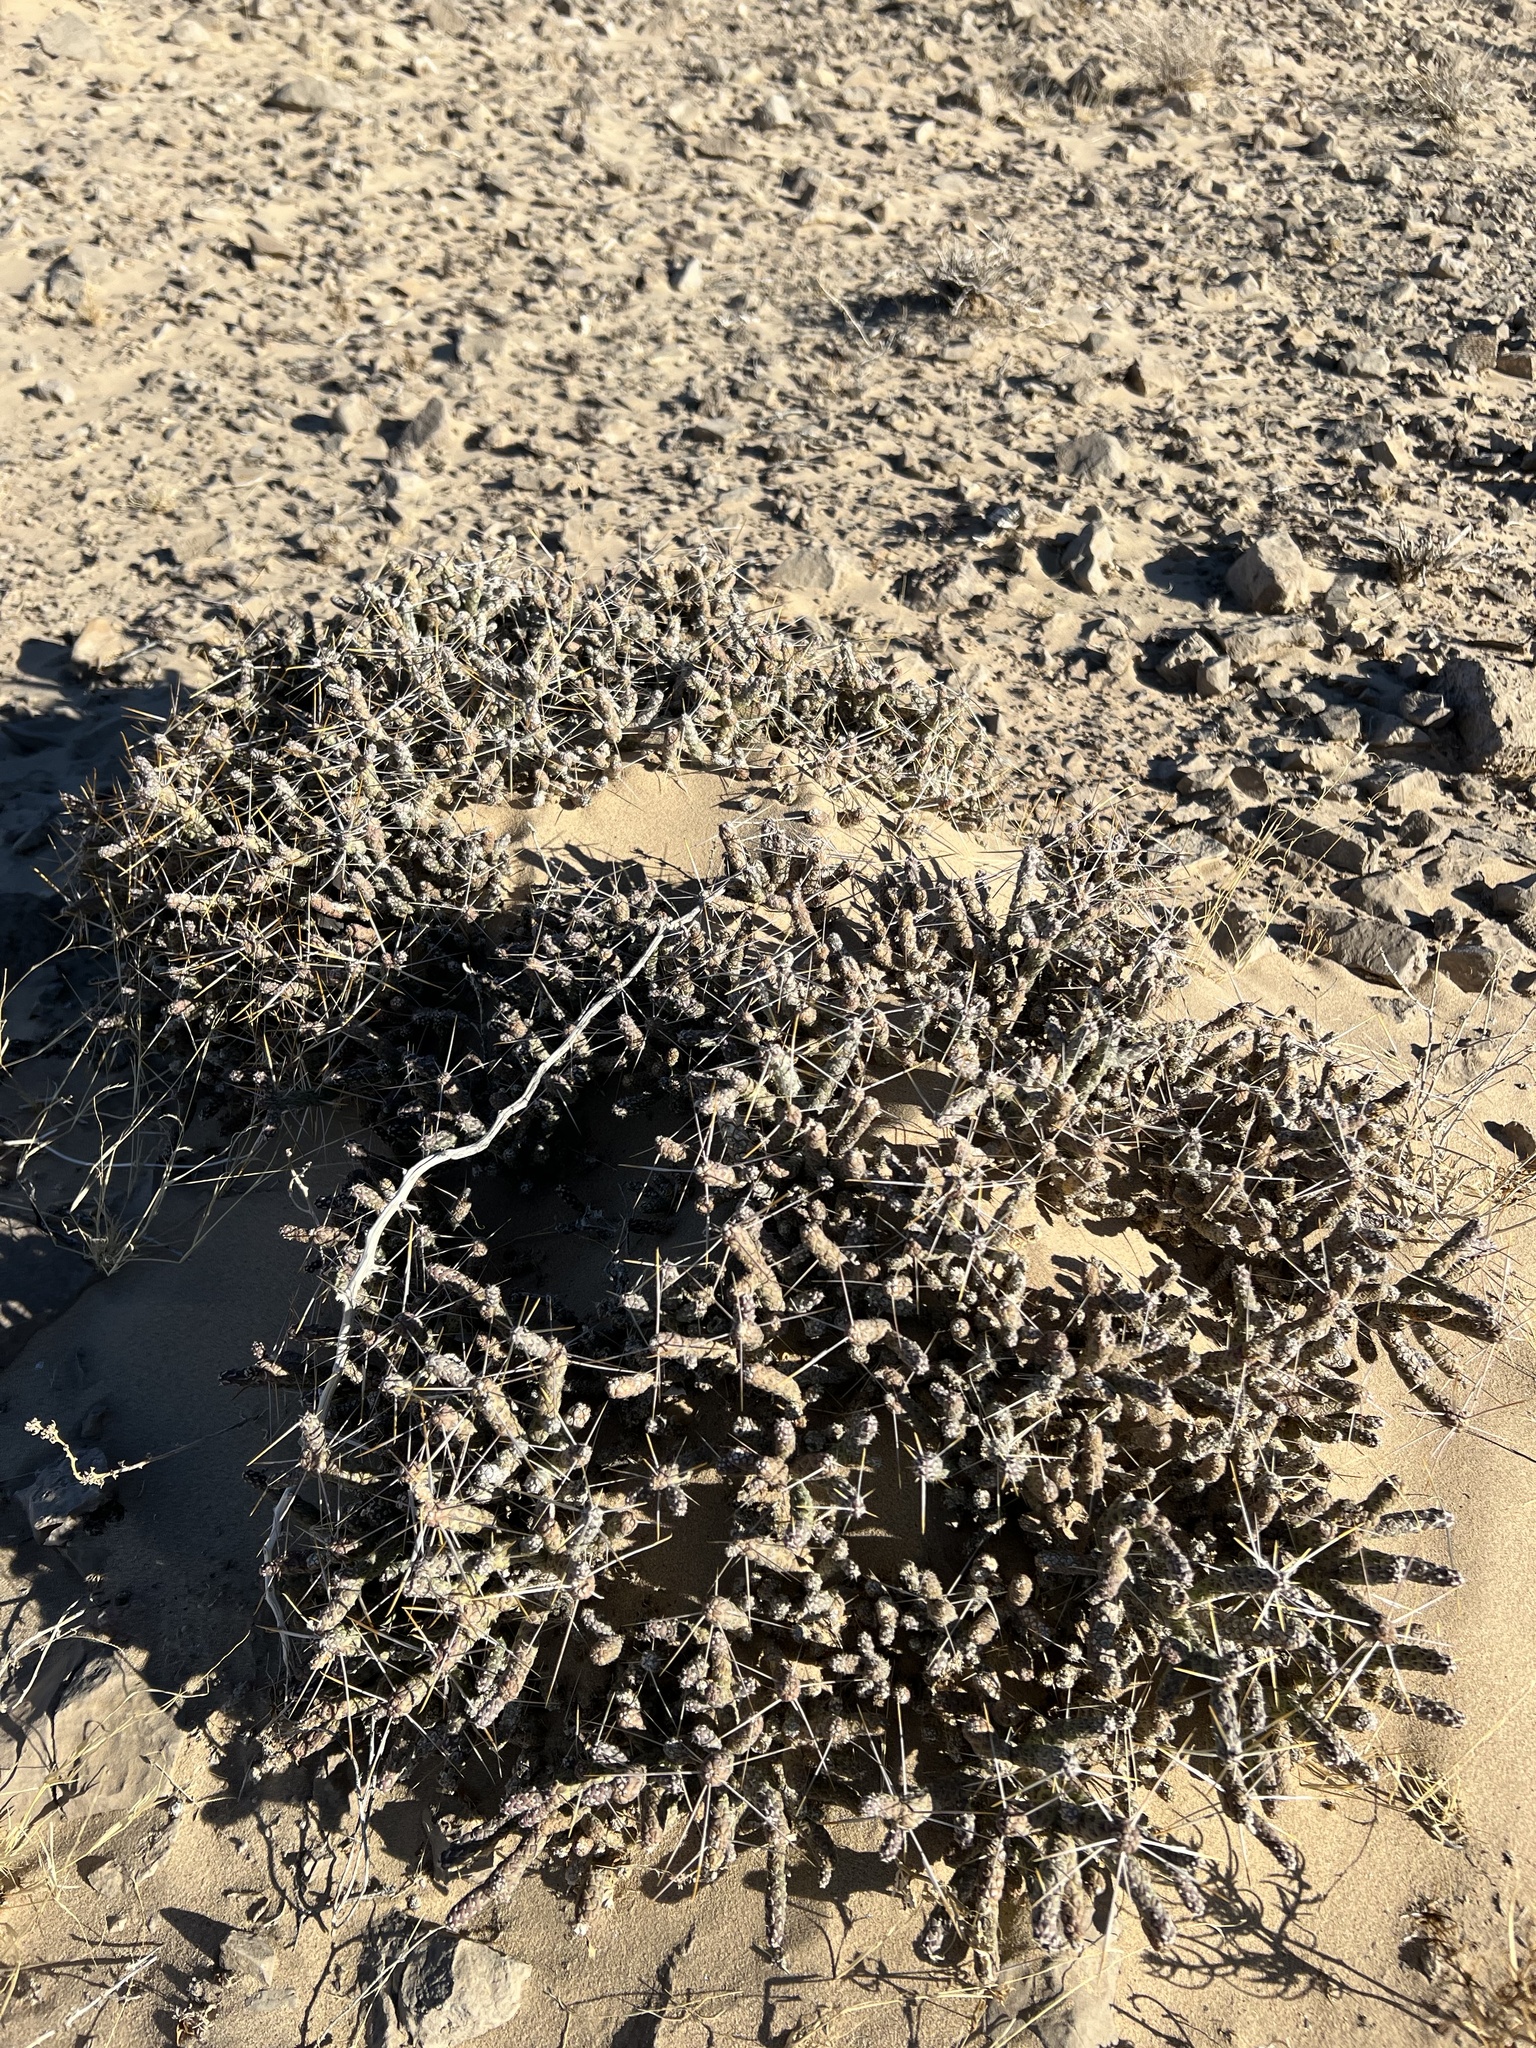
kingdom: Plantae
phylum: Tracheophyta
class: Magnoliopsida
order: Caryophyllales
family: Cactaceae
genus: Cylindropuntia
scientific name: Cylindropuntia ramosissima
